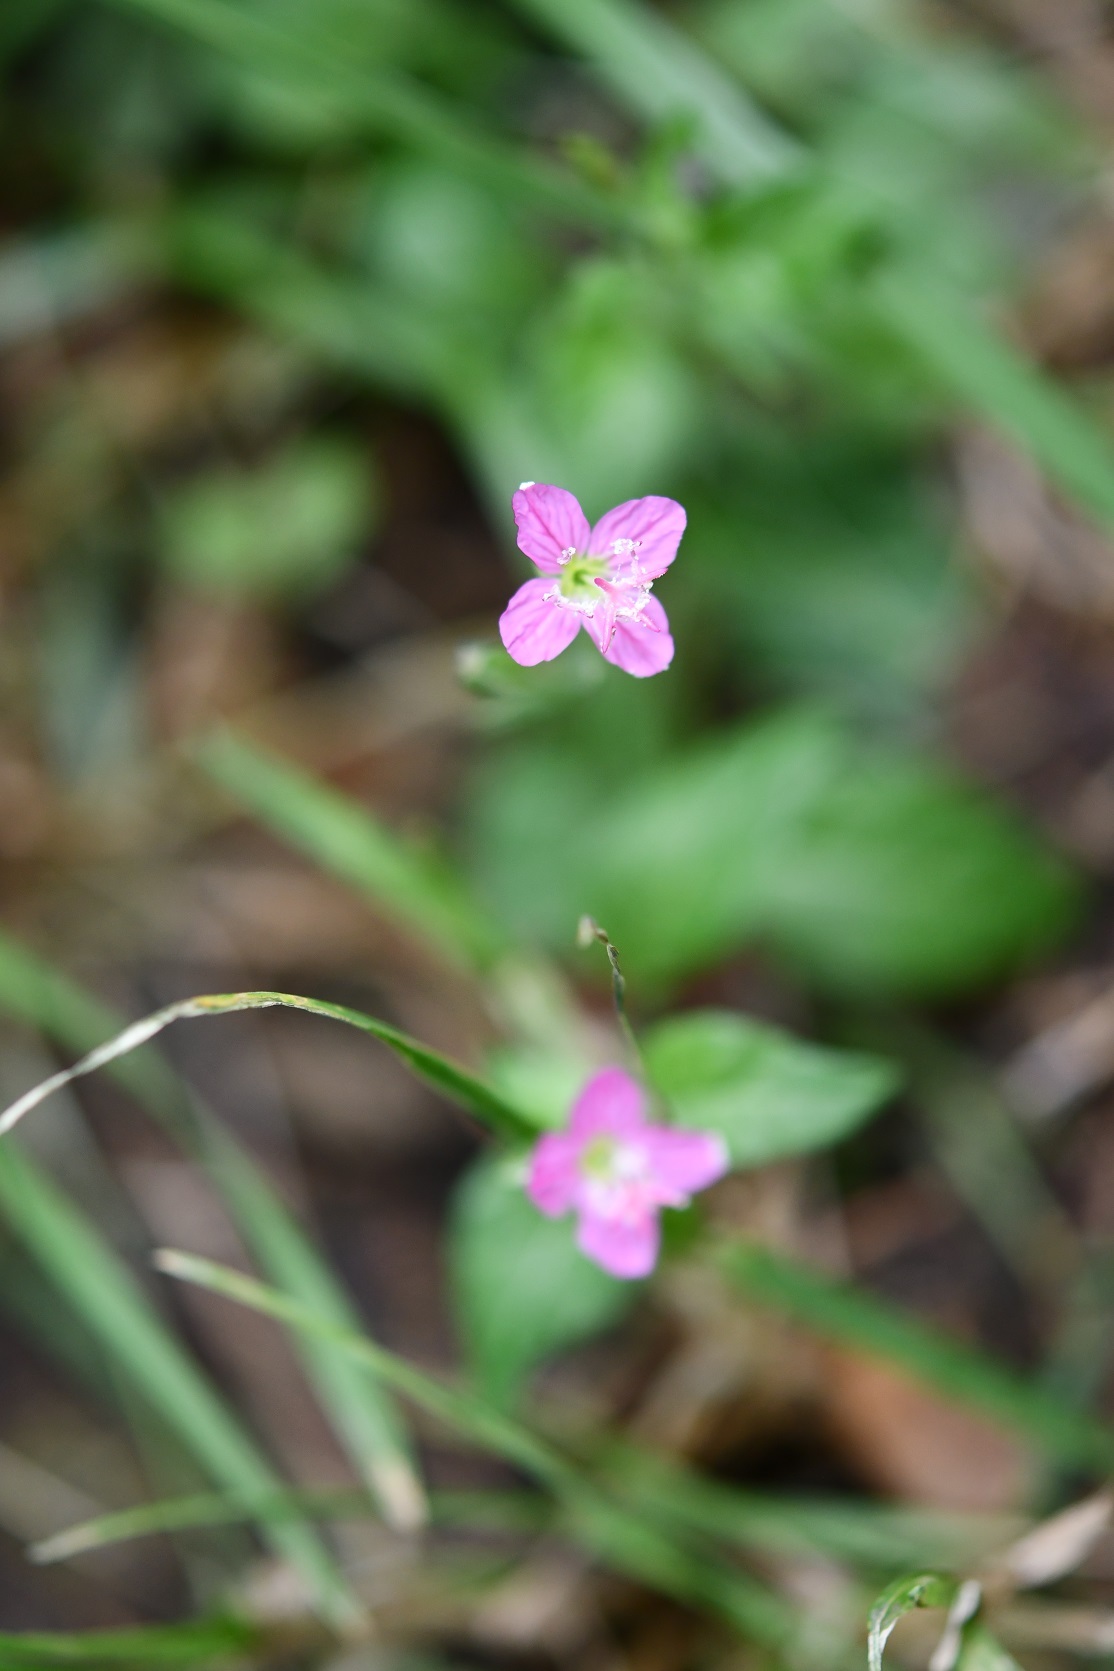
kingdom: Plantae
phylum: Tracheophyta
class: Magnoliopsida
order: Myrtales
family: Onagraceae
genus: Oenothera
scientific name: Oenothera rosea
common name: Rosy evening-primrose
